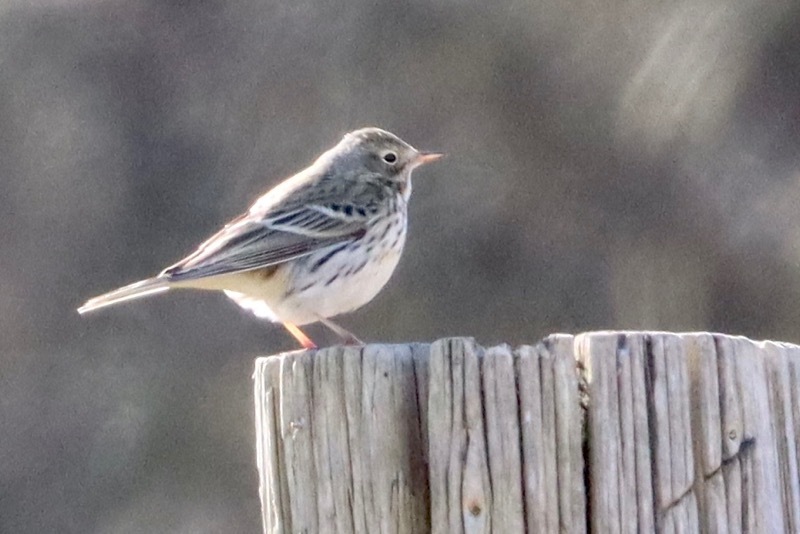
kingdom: Animalia
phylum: Chordata
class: Aves
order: Passeriformes
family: Motacillidae
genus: Anthus
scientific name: Anthus pratensis
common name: Meadow pipit
